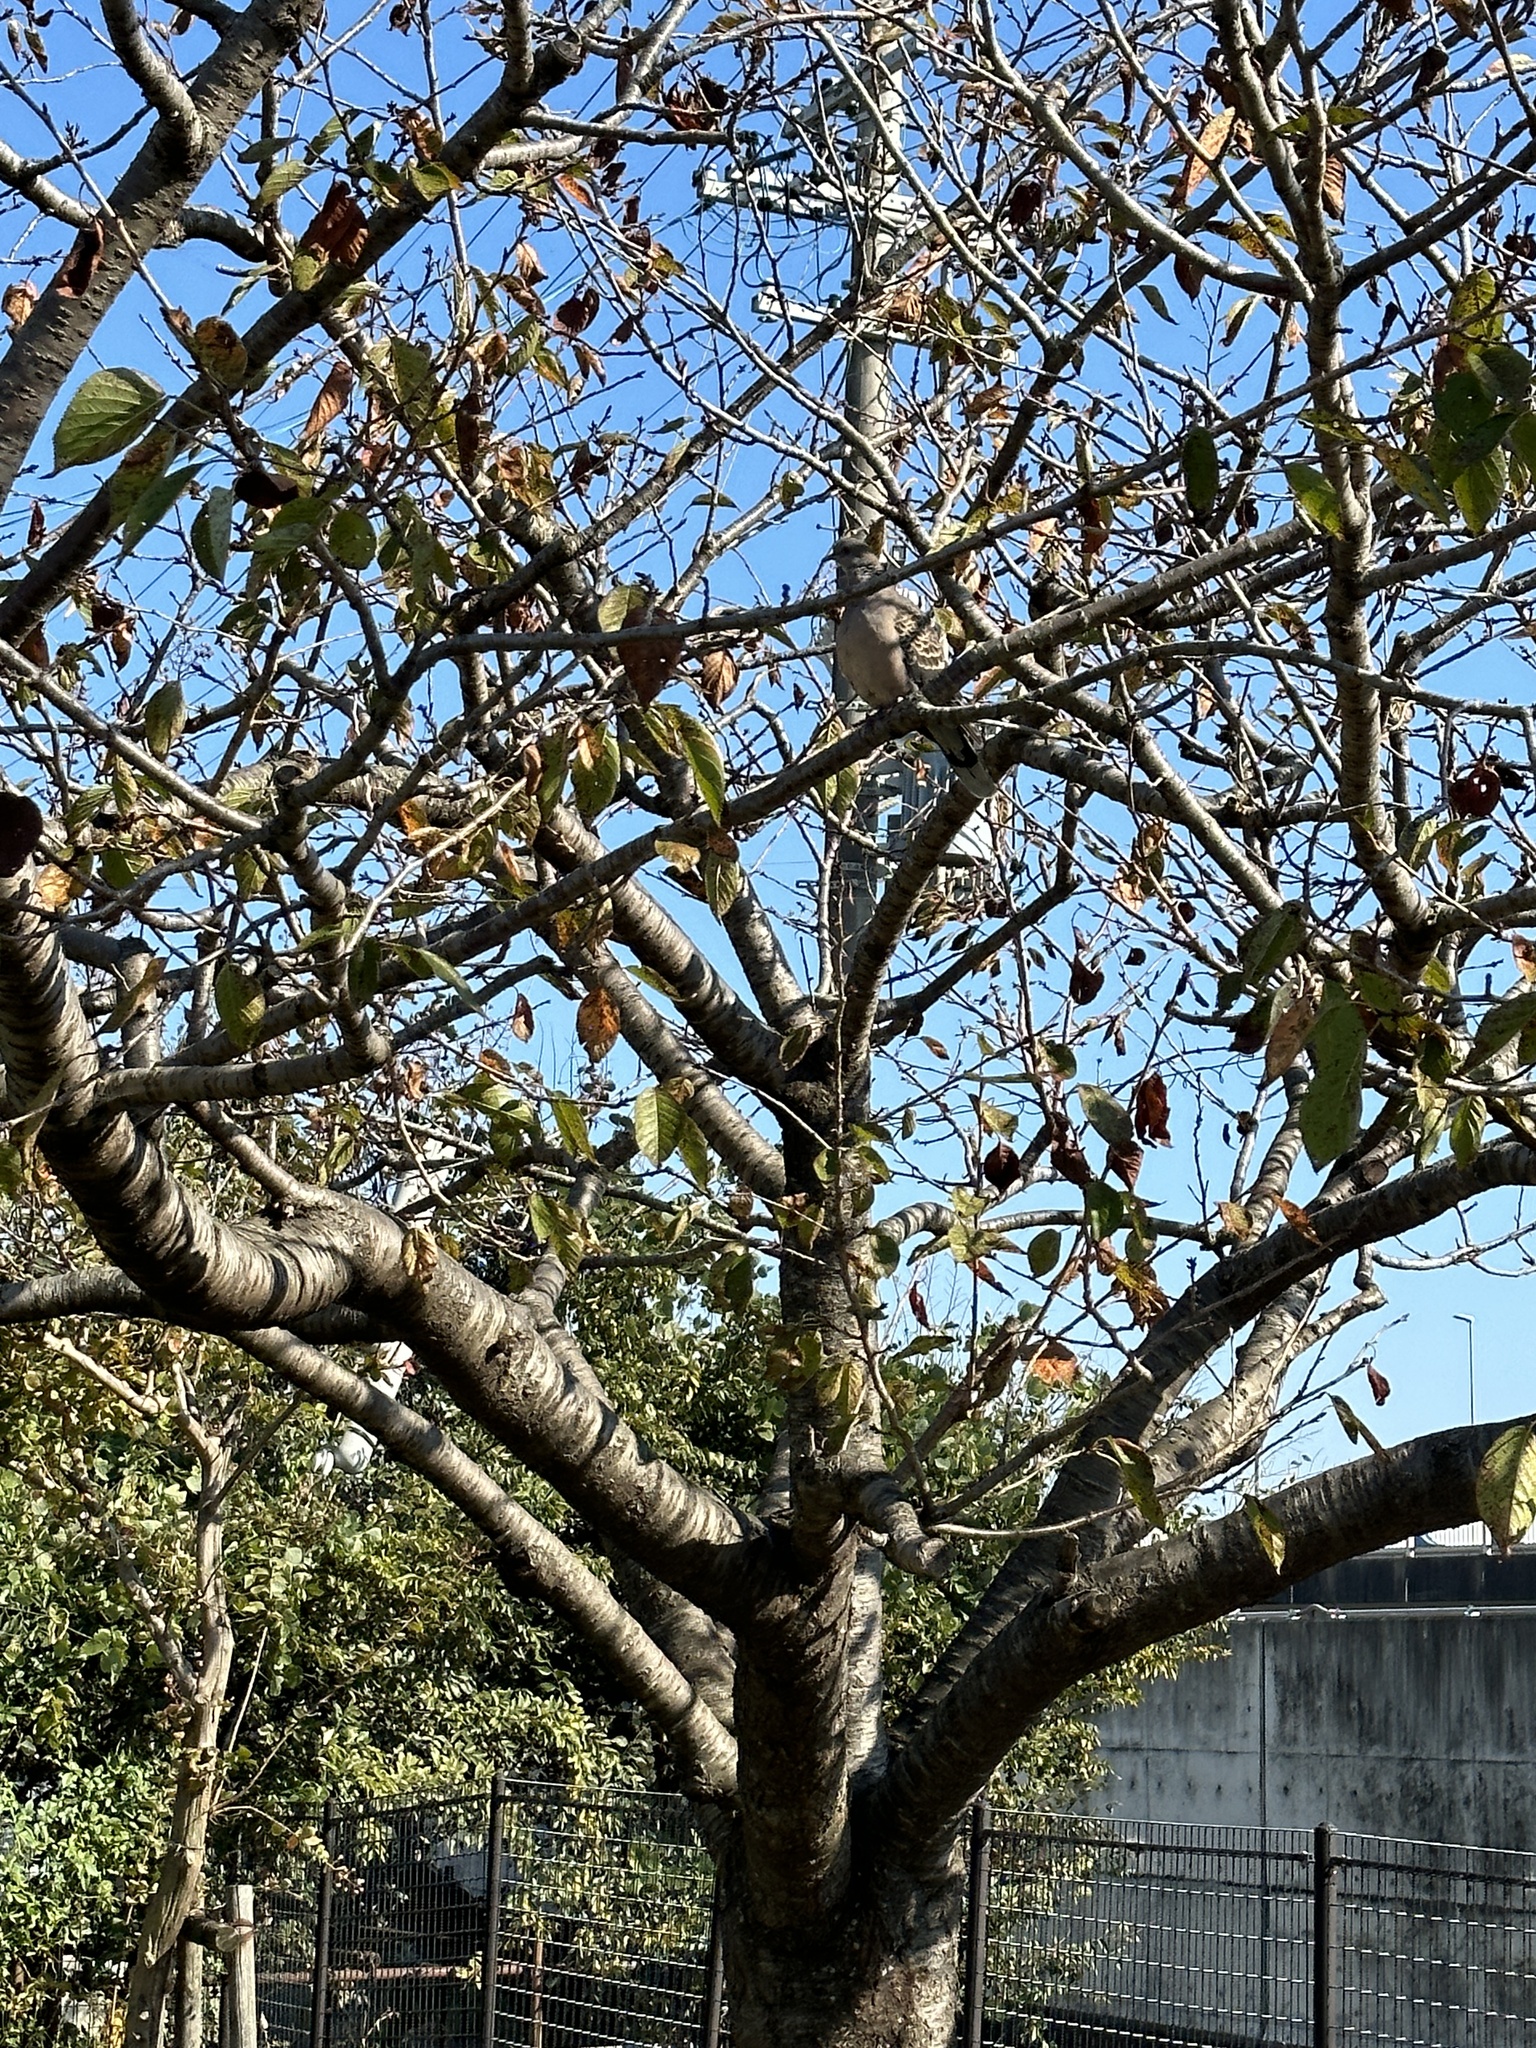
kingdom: Animalia
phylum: Chordata
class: Aves
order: Columbiformes
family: Columbidae
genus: Streptopelia
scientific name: Streptopelia orientalis
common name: Oriental turtle dove
